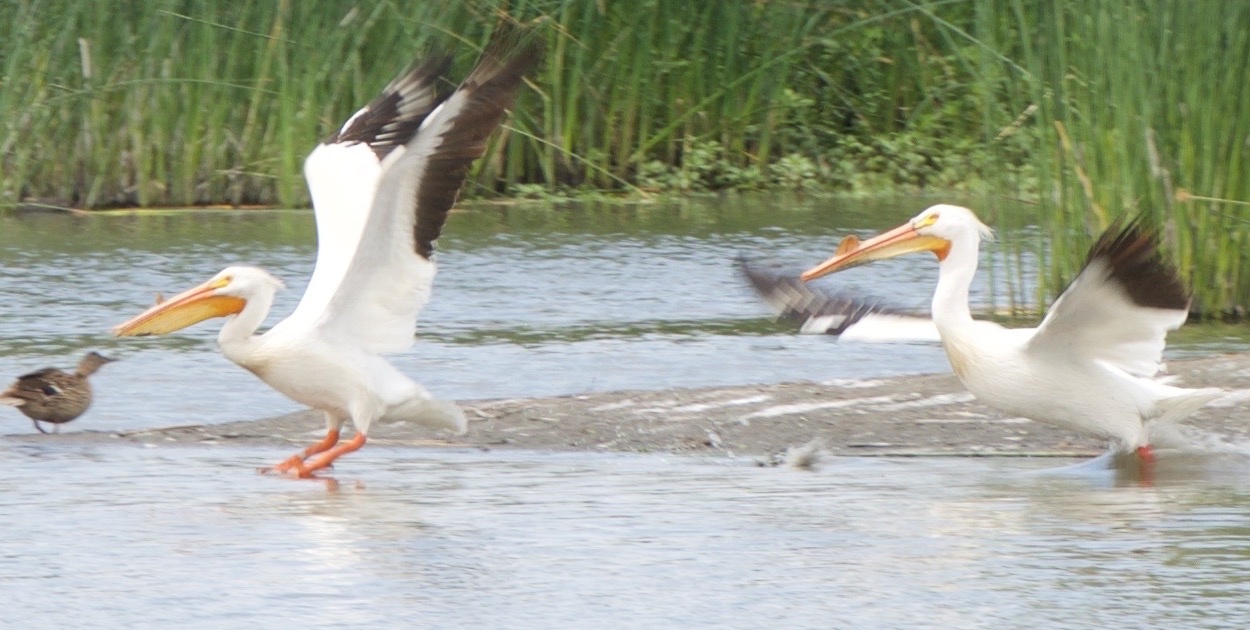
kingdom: Animalia
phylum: Chordata
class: Aves
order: Pelecaniformes
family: Pelecanidae
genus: Pelecanus
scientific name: Pelecanus erythrorhynchos
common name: American white pelican
